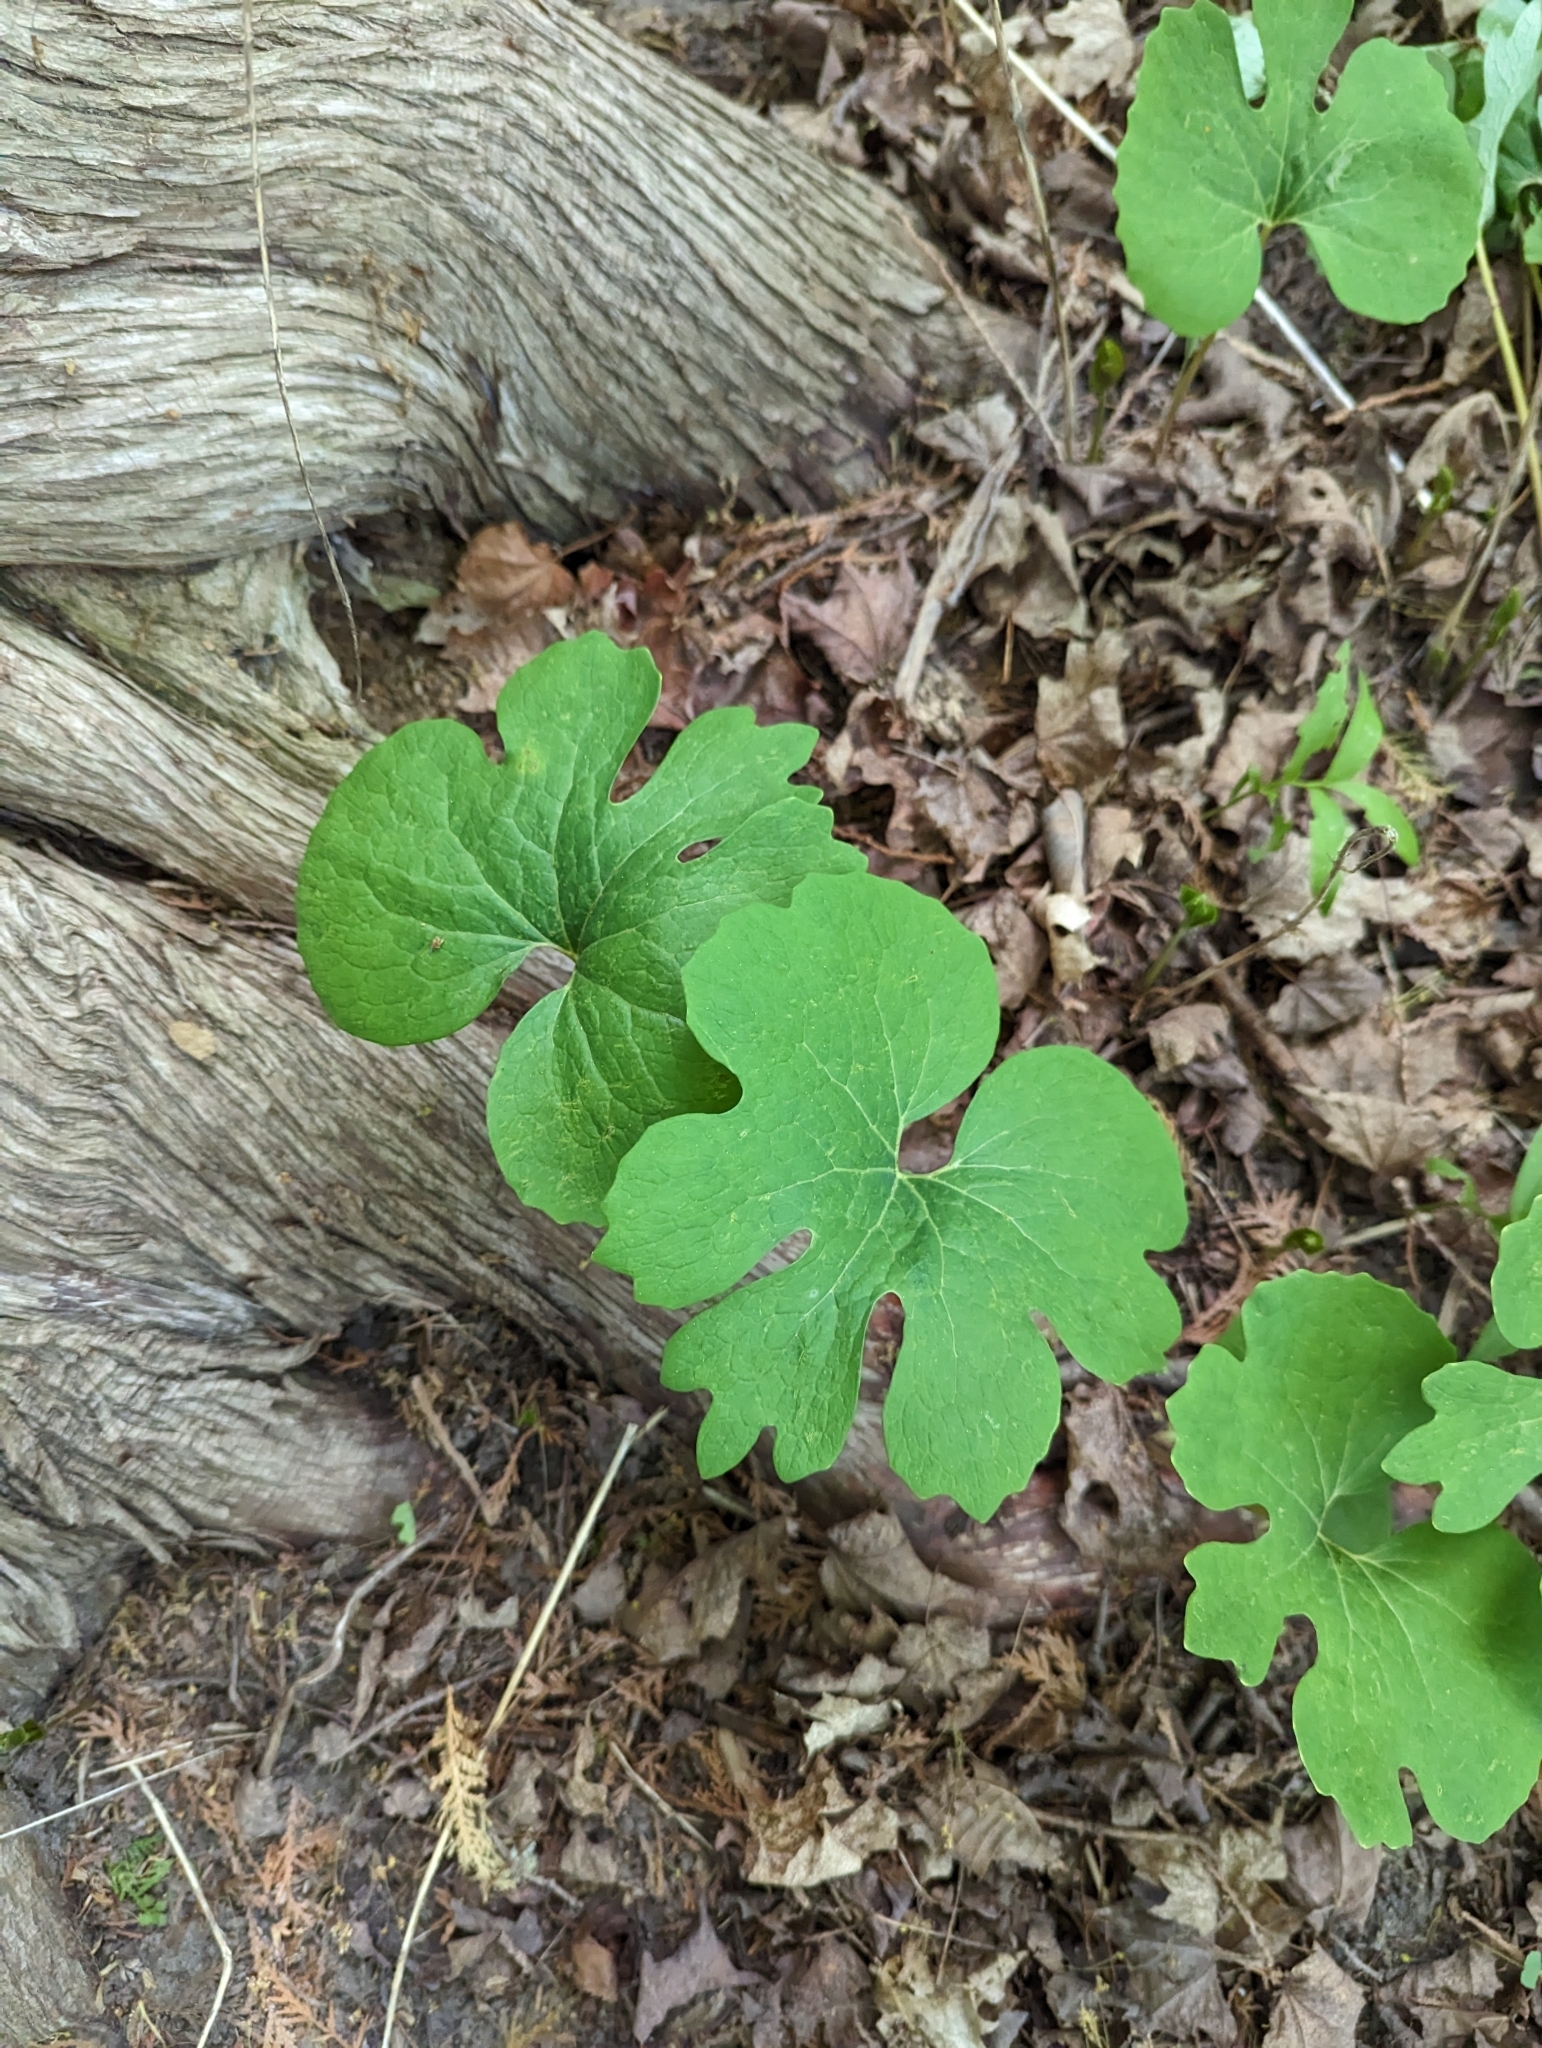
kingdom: Plantae
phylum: Tracheophyta
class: Magnoliopsida
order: Ranunculales
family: Papaveraceae
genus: Sanguinaria
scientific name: Sanguinaria canadensis
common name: Bloodroot
